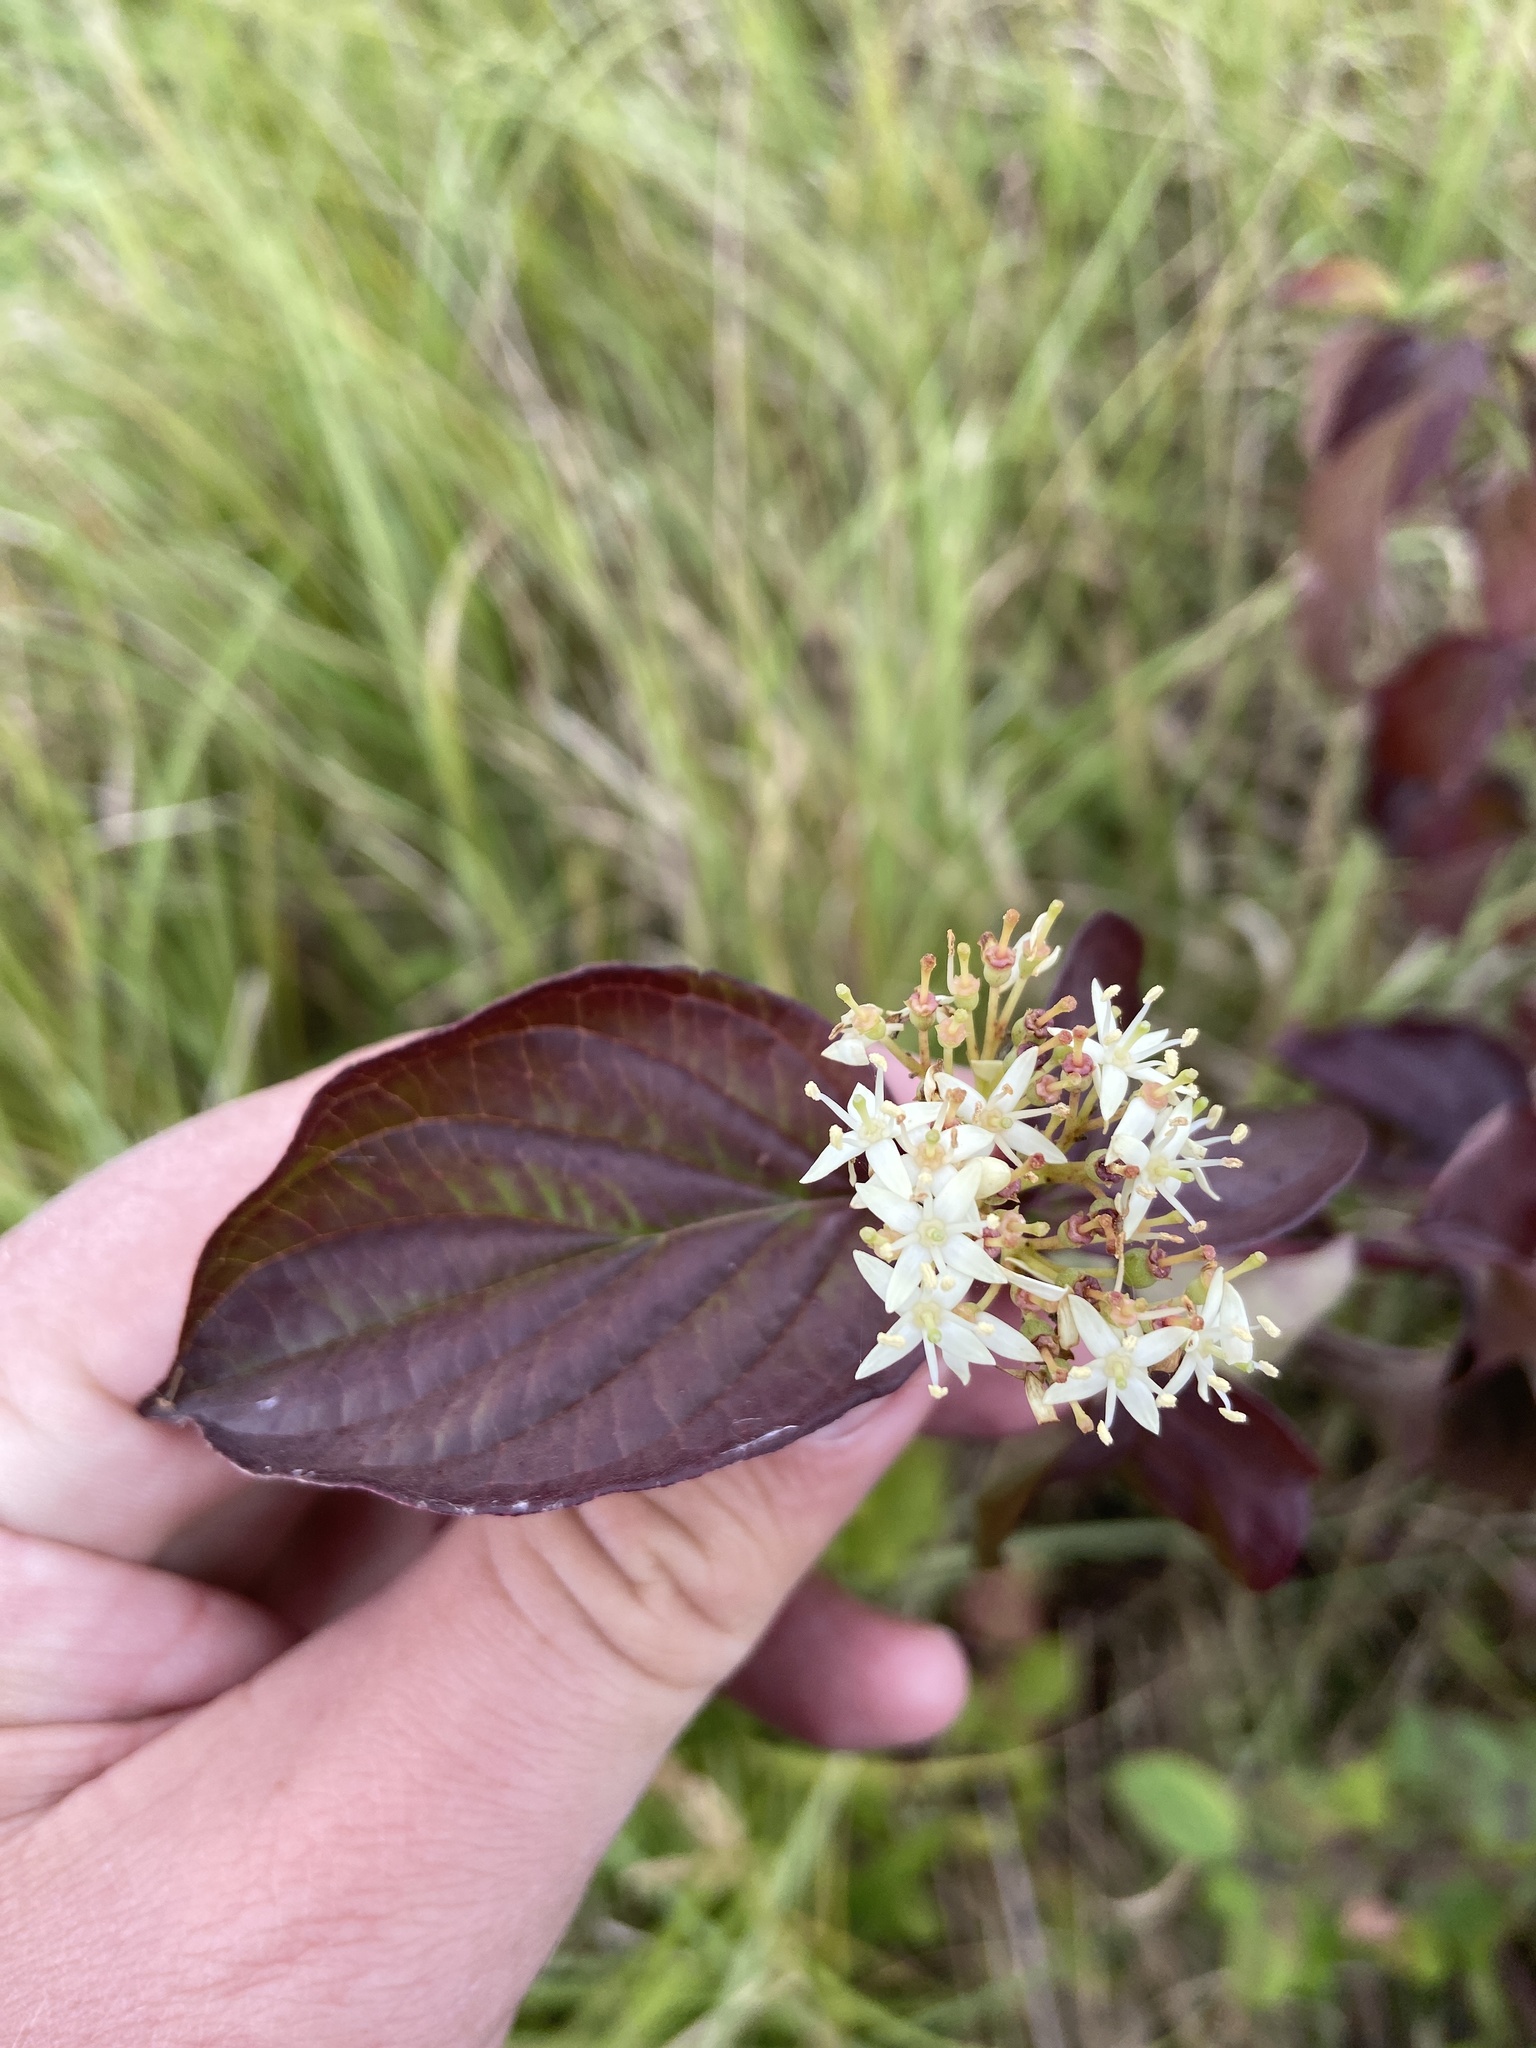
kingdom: Plantae
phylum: Tracheophyta
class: Magnoliopsida
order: Cornales
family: Cornaceae
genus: Cornus
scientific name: Cornus sanguinea
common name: Dogwood
